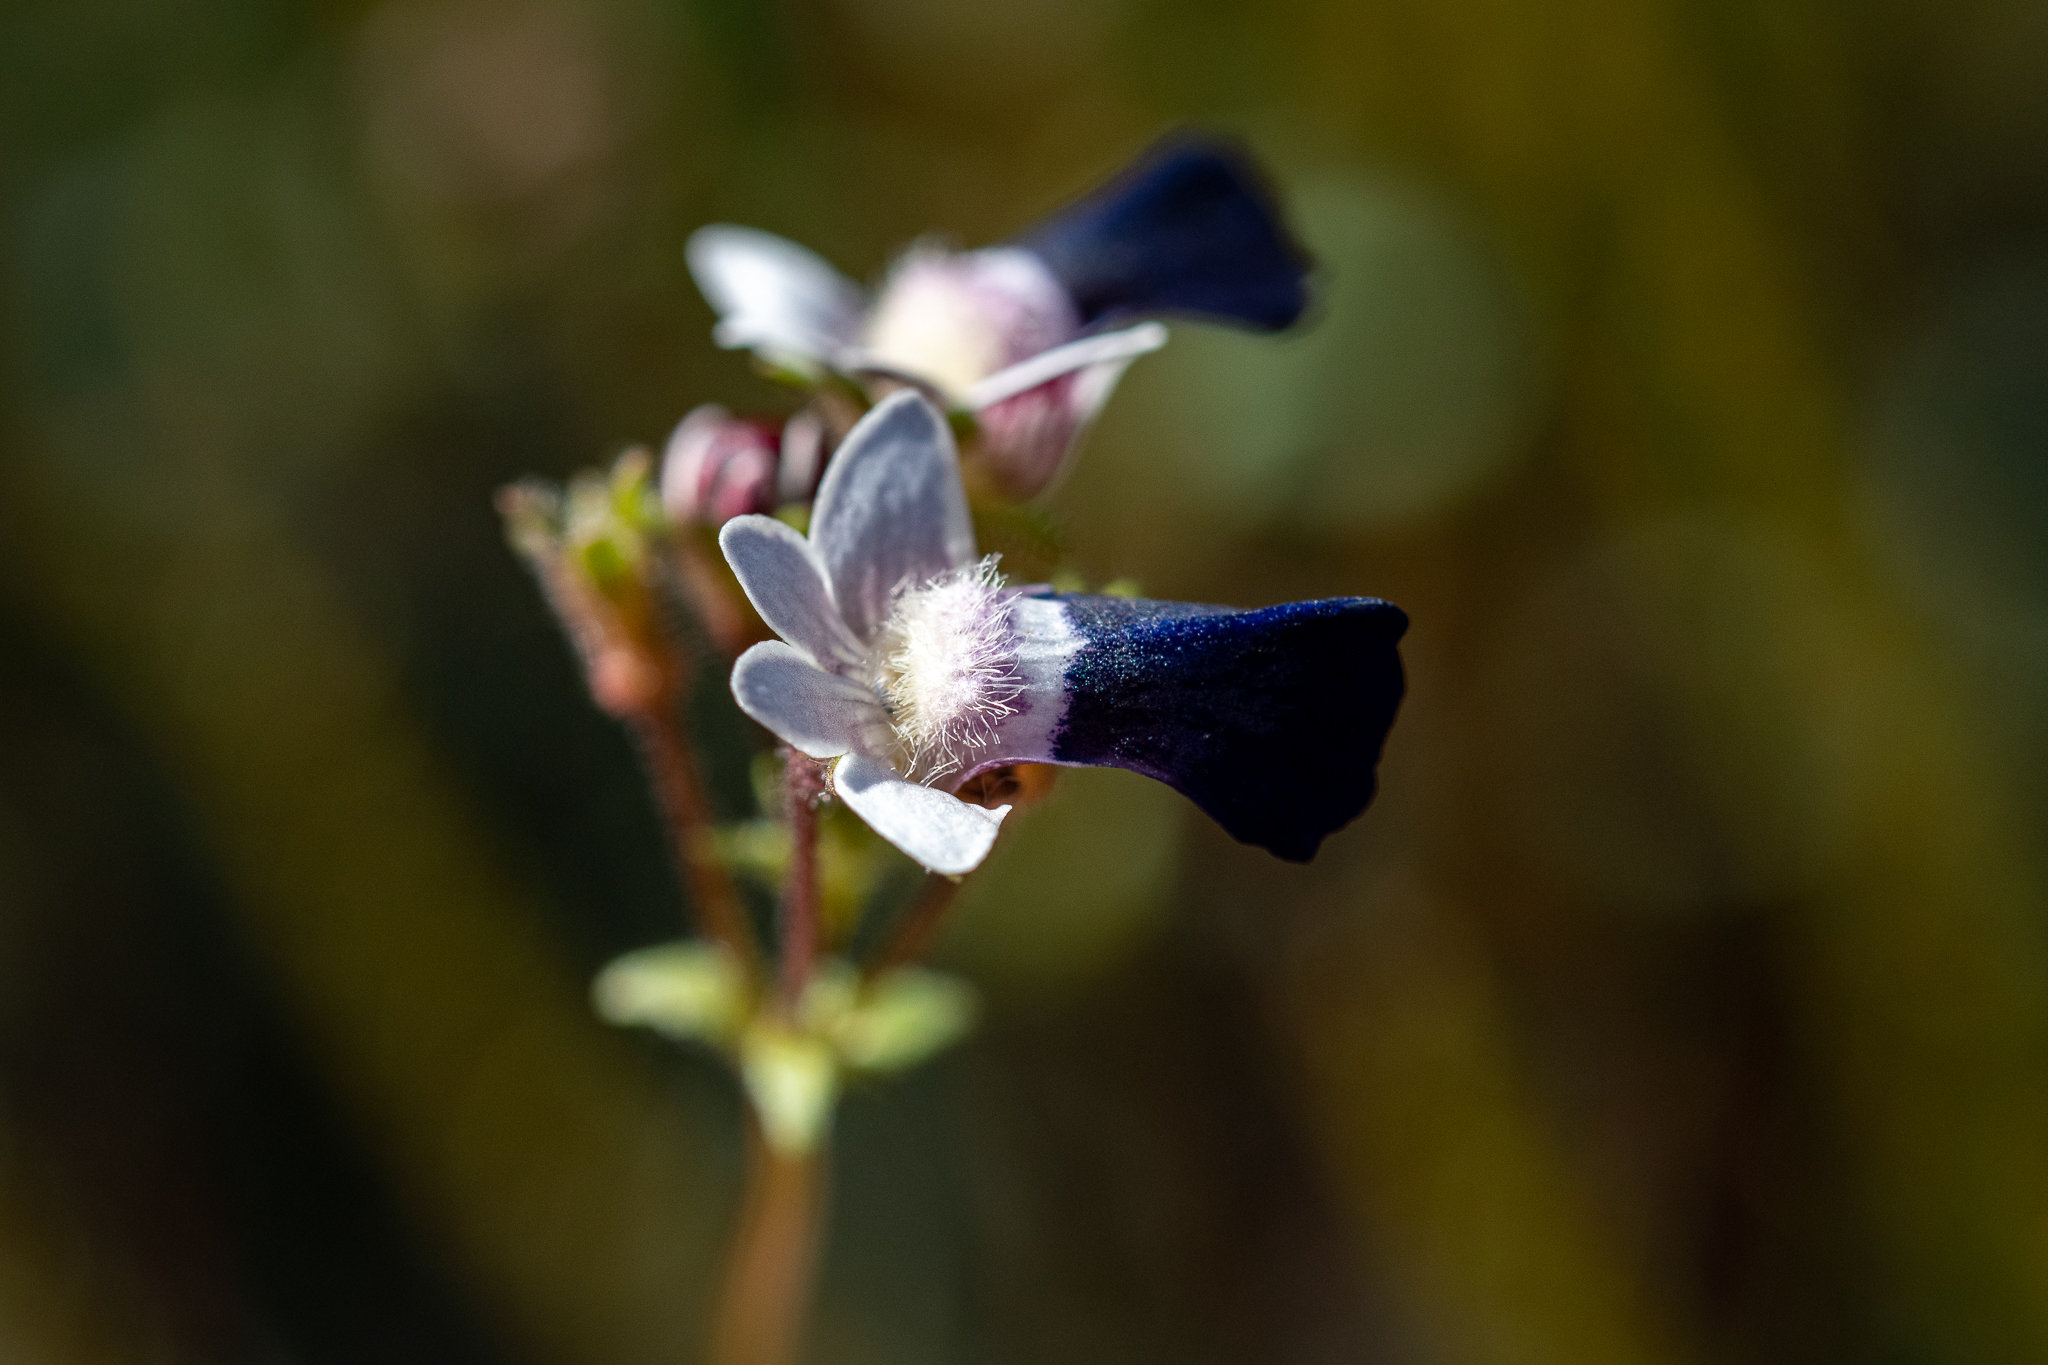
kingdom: Plantae
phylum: Tracheophyta
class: Magnoliopsida
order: Lamiales
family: Scrophulariaceae
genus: Nemesia
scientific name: Nemesia barbata
